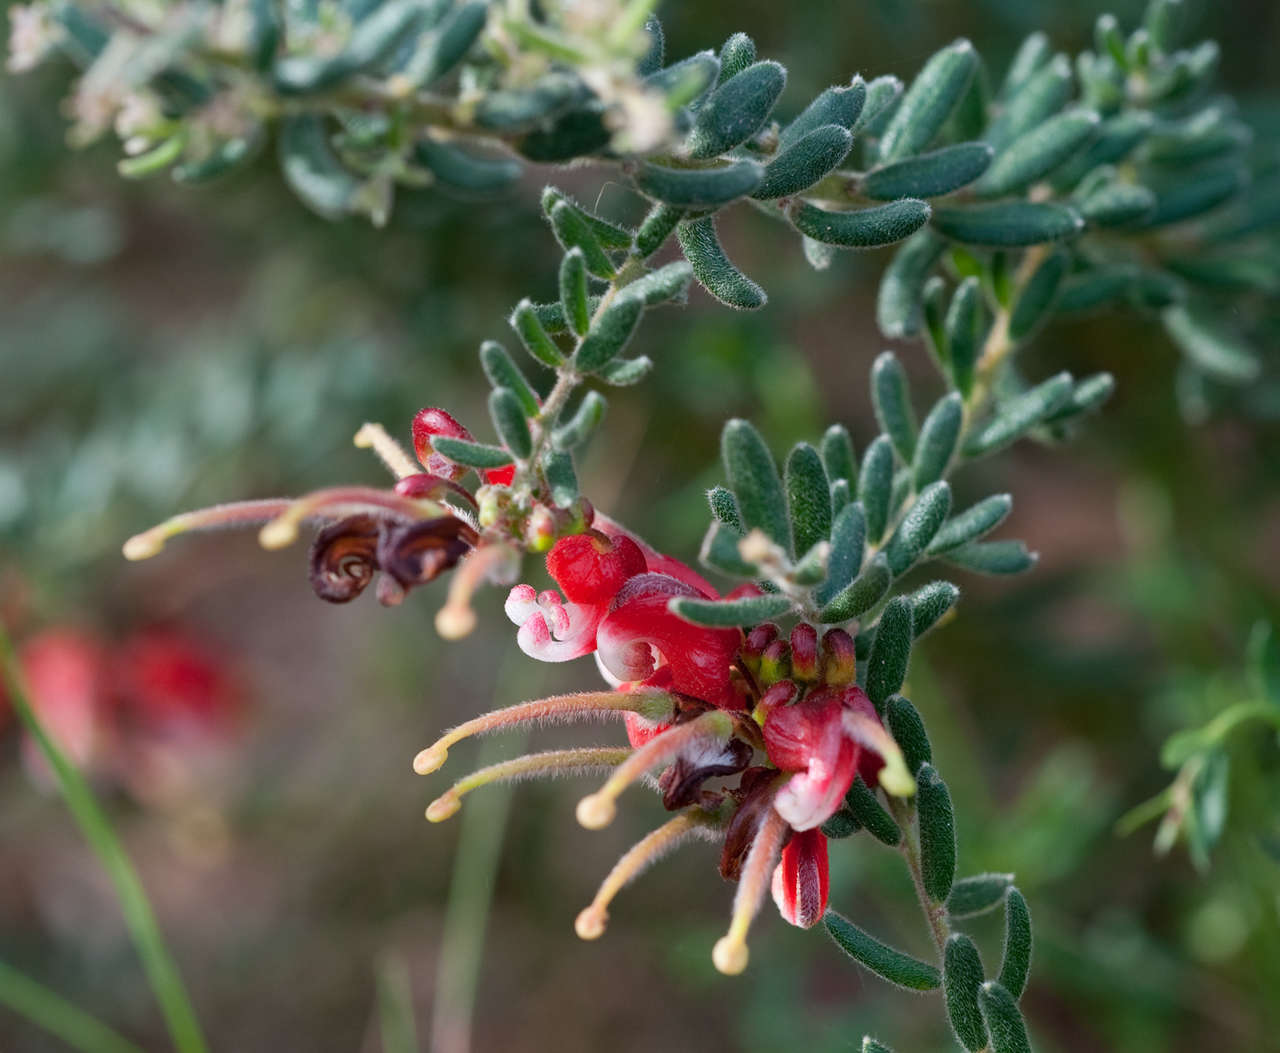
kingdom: Plantae
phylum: Tracheophyta
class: Magnoliopsida
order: Proteales
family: Proteaceae
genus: Grevillea
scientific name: Grevillea alpina
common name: Catclaws grevillea
